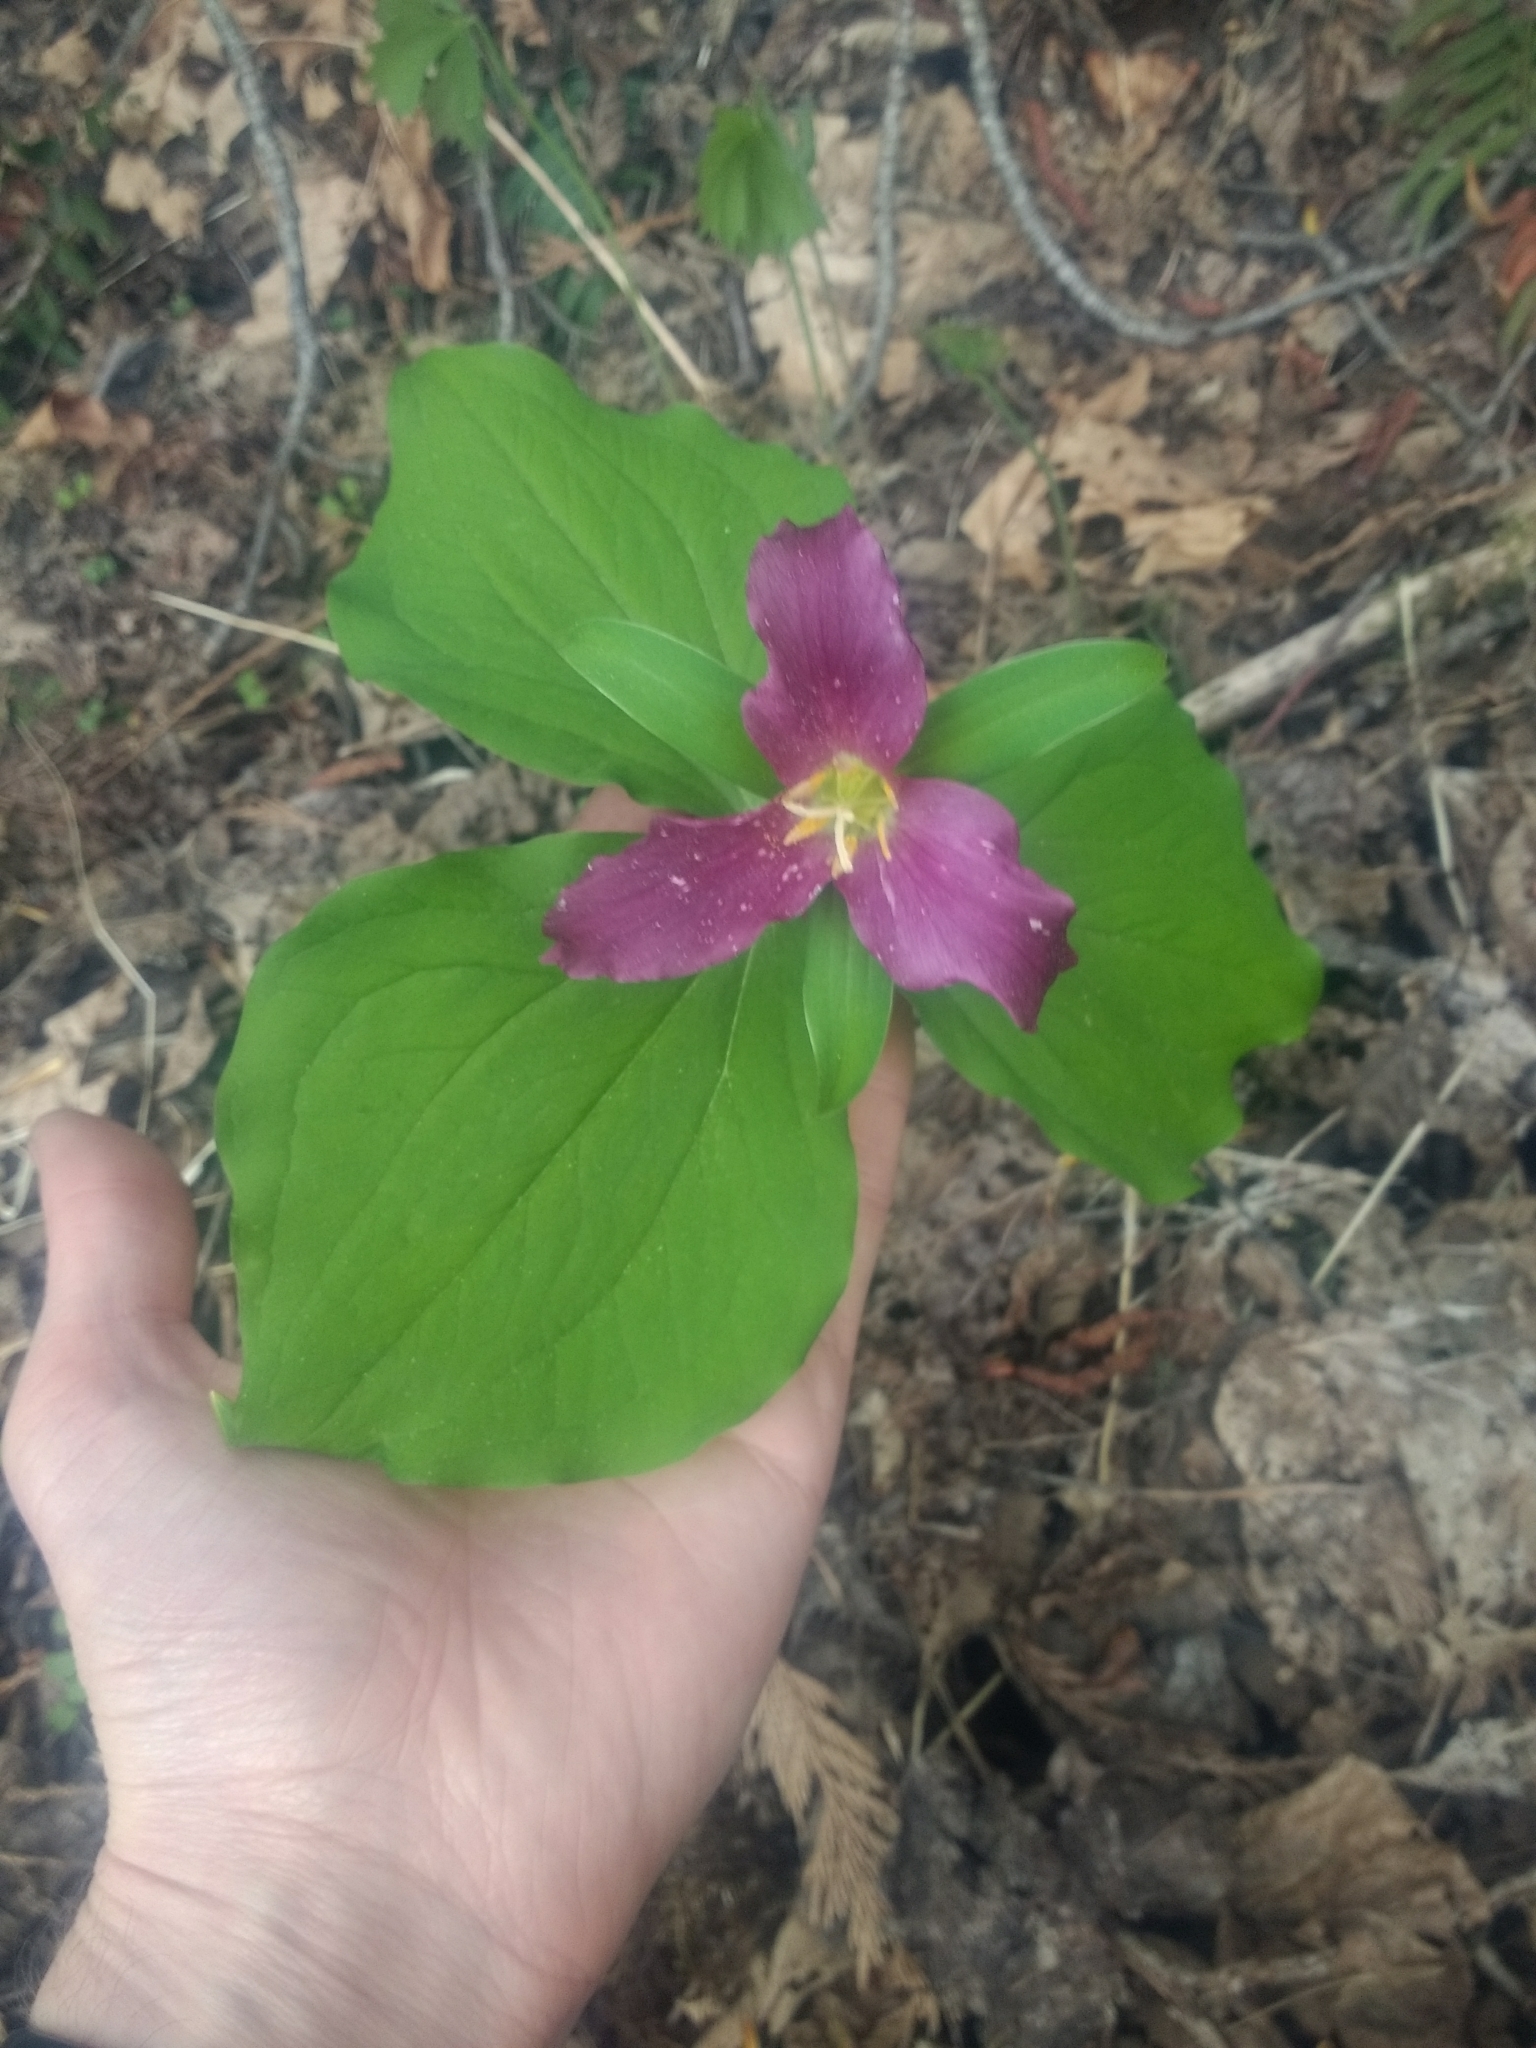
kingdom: Plantae
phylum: Tracheophyta
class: Liliopsida
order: Liliales
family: Melanthiaceae
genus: Trillium
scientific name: Trillium ovatum
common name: Pacific trillium
